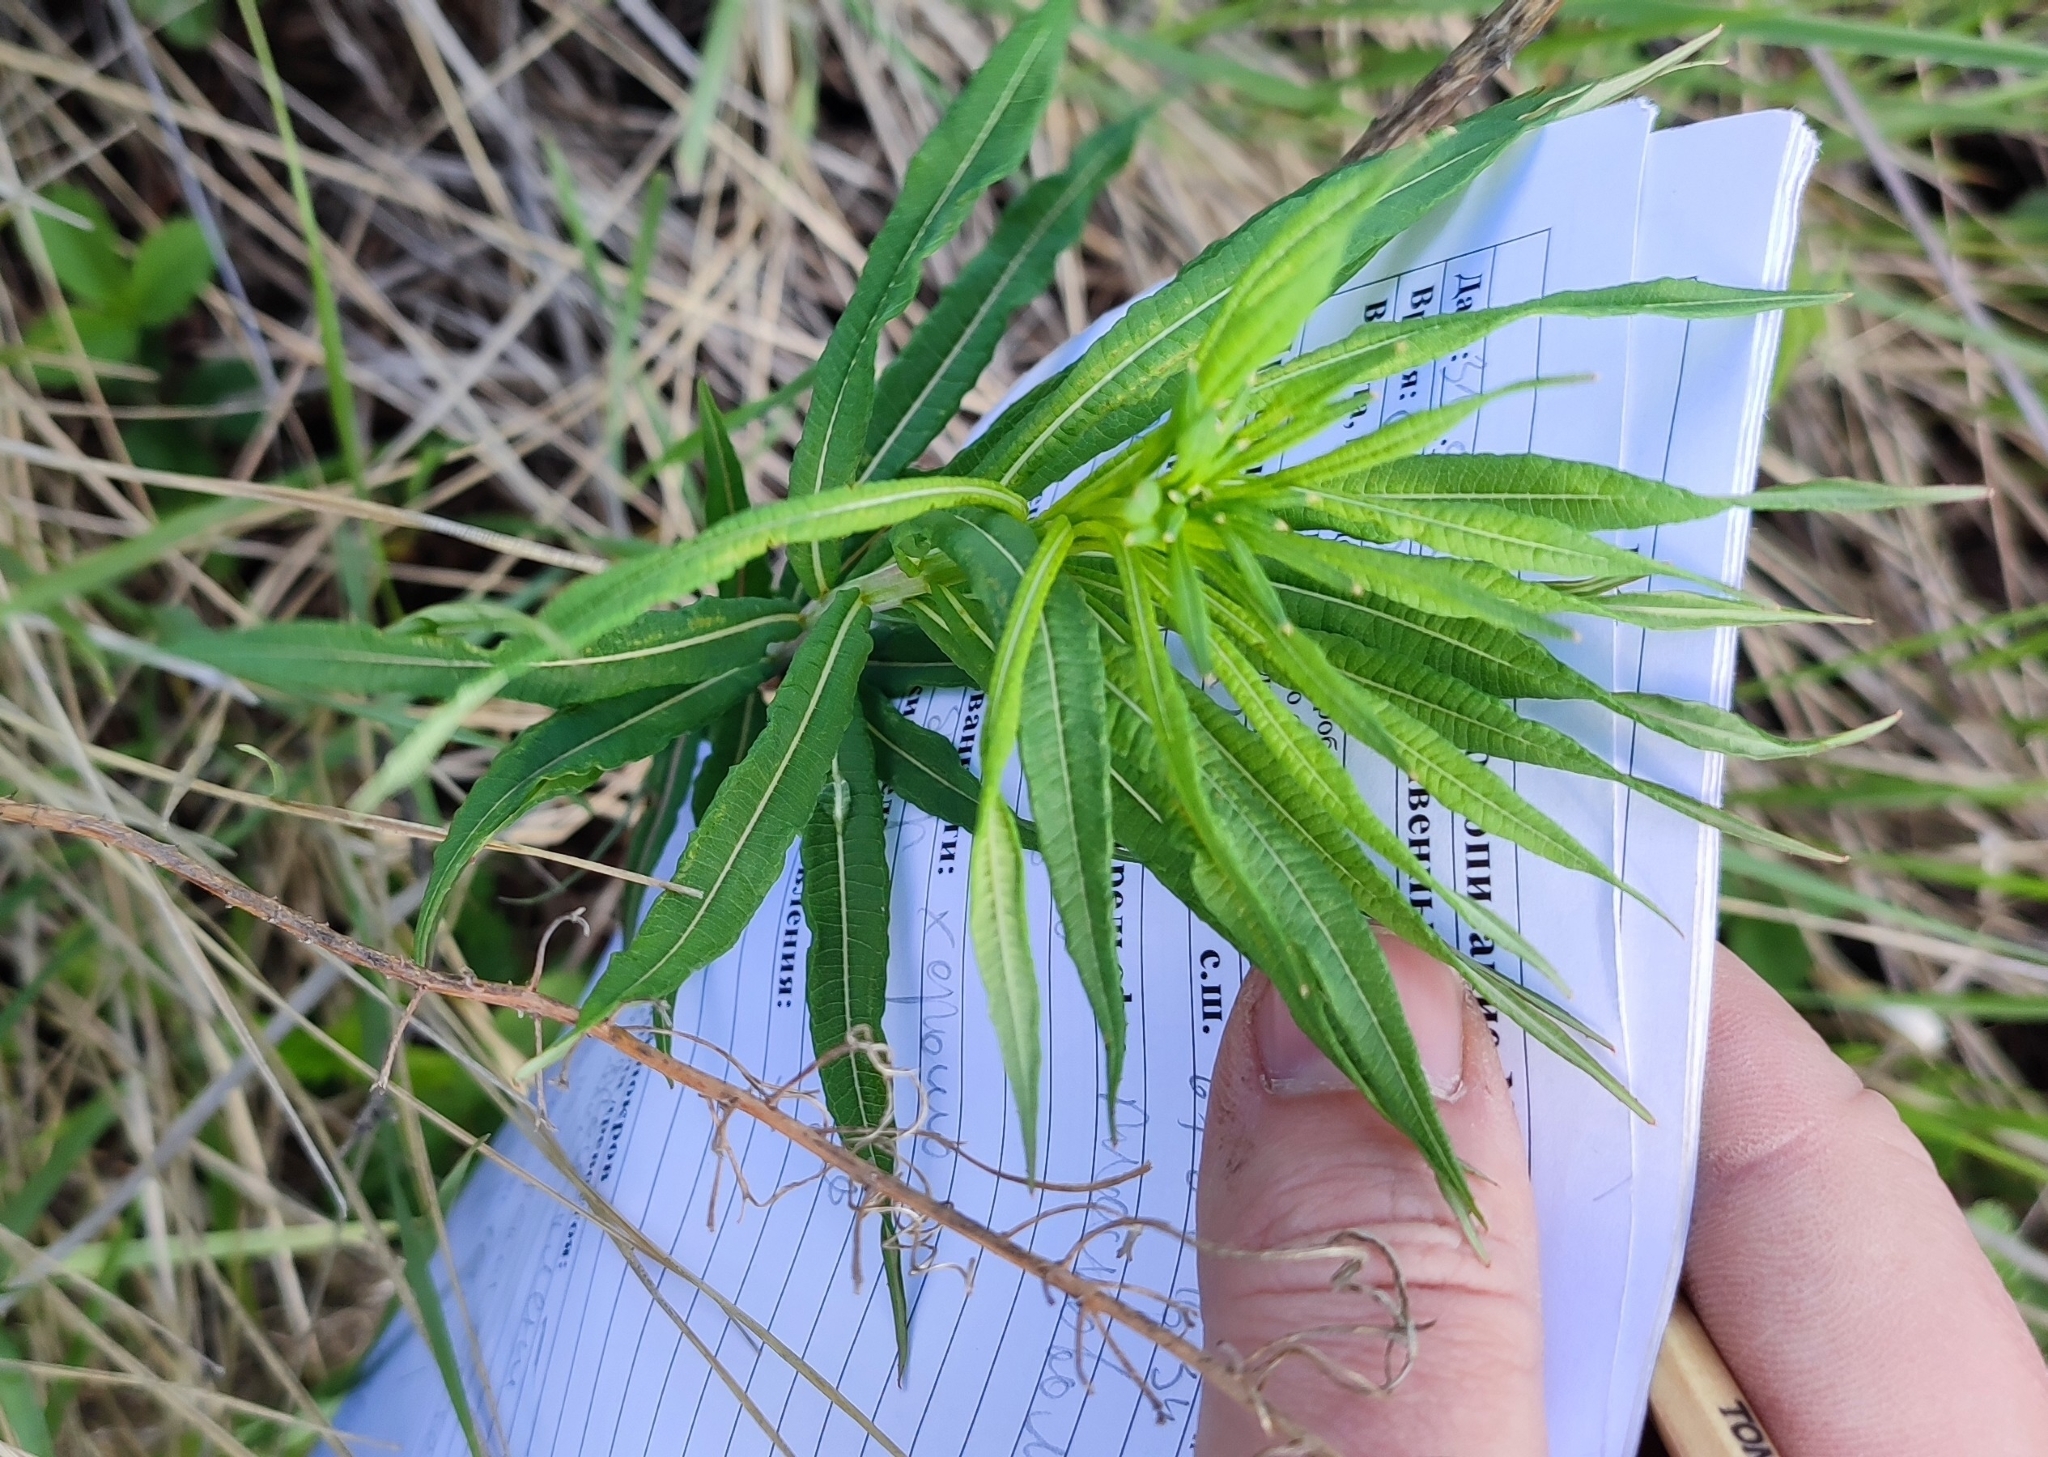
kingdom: Plantae
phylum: Tracheophyta
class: Magnoliopsida
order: Myrtales
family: Onagraceae
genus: Chamaenerion
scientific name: Chamaenerion angustifolium
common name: Fireweed
